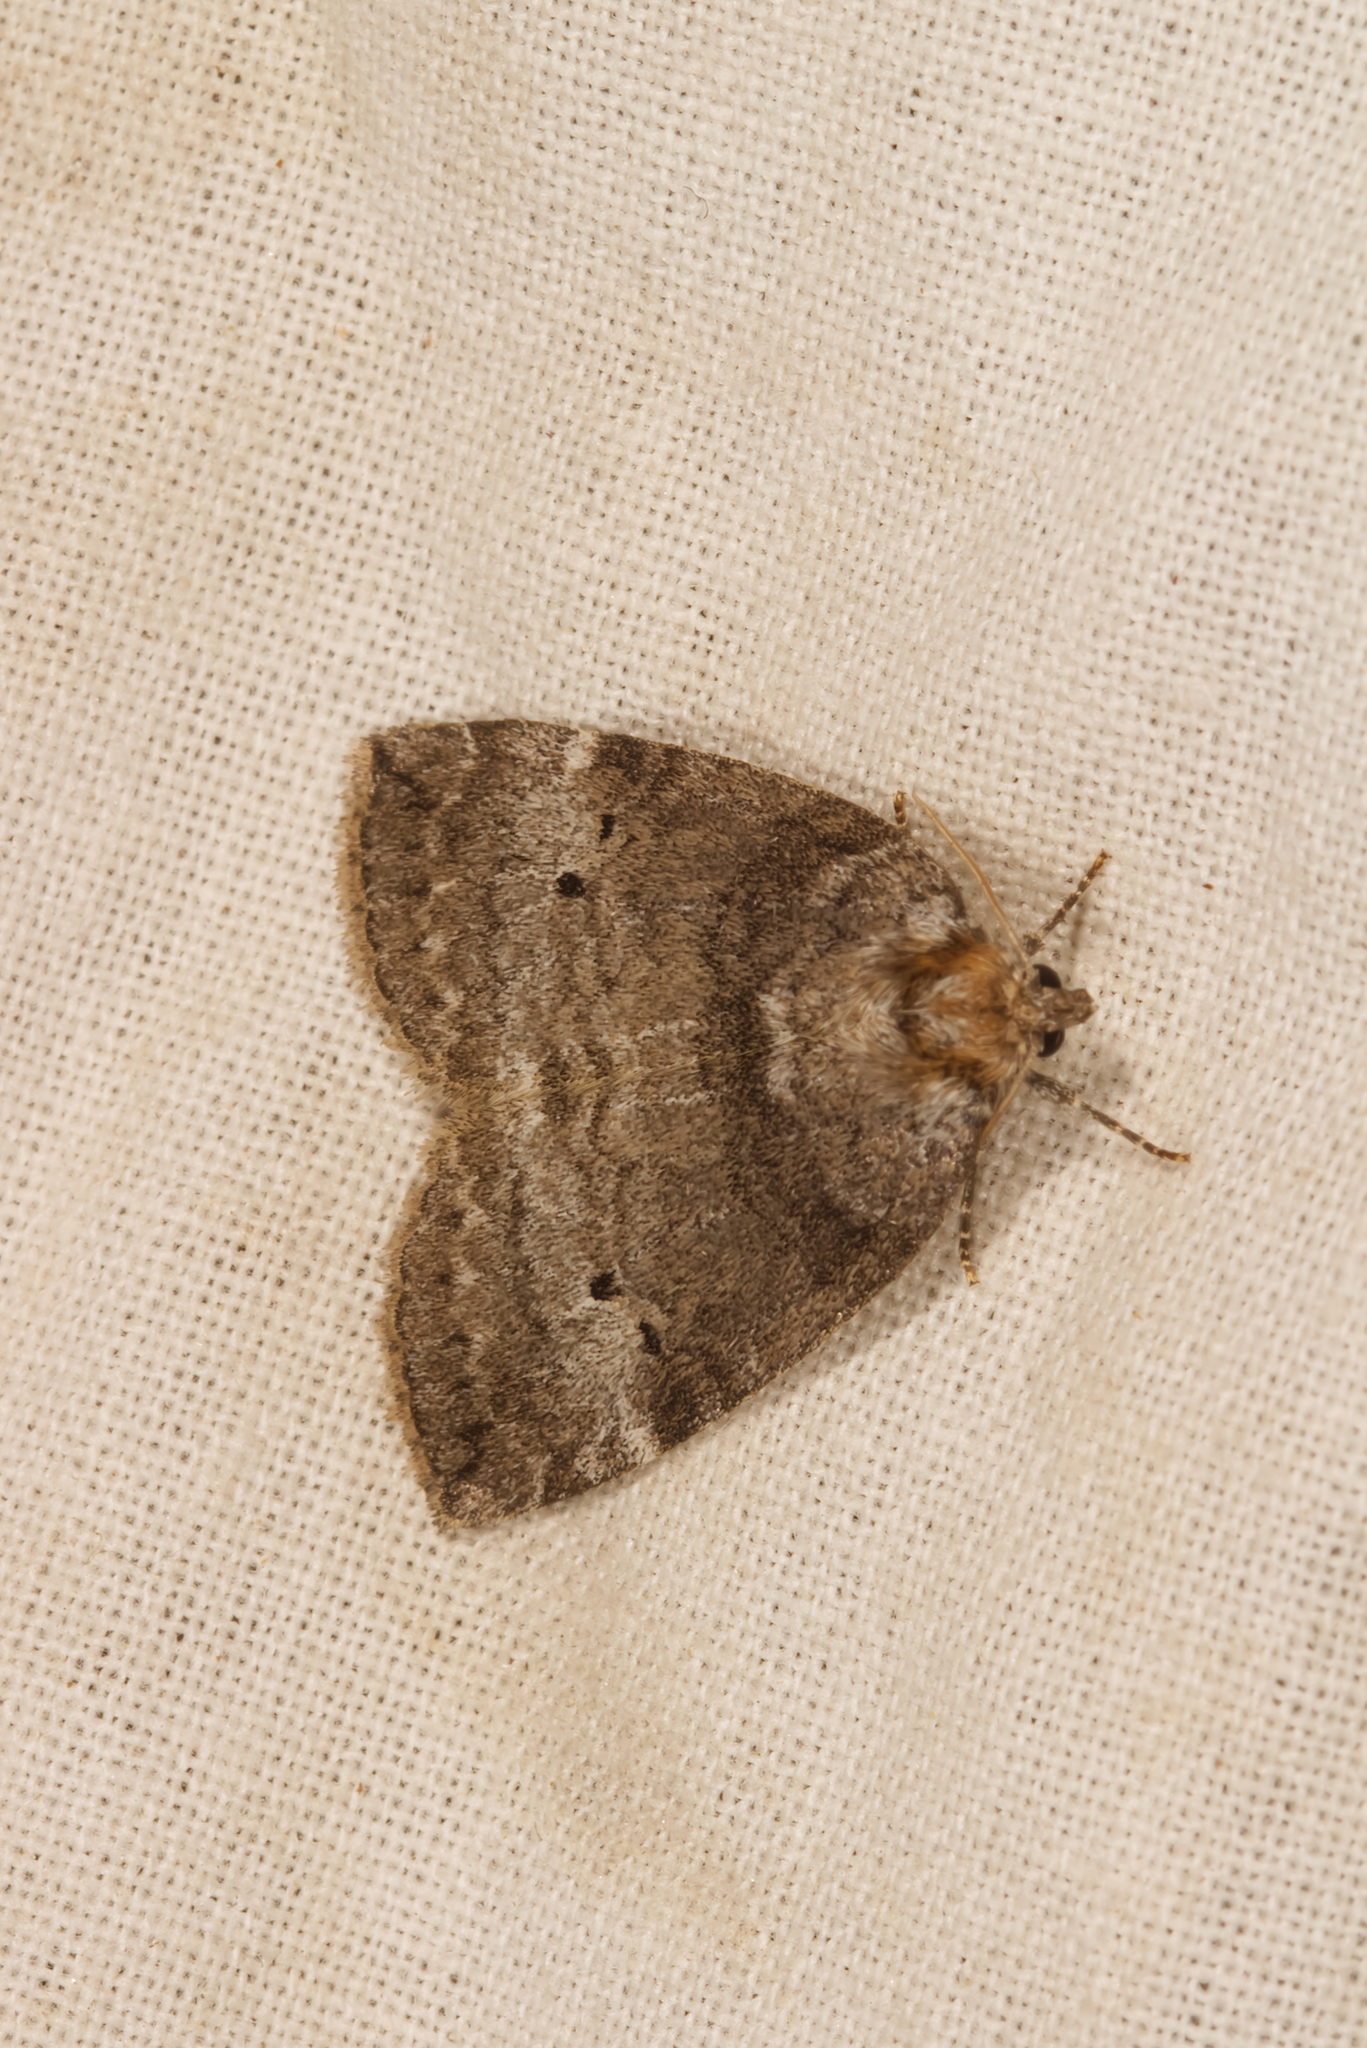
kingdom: Animalia
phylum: Arthropoda
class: Insecta
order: Lepidoptera
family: Drepanidae
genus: Ochropacha
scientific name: Ochropacha duplaris
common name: Common lutestring
